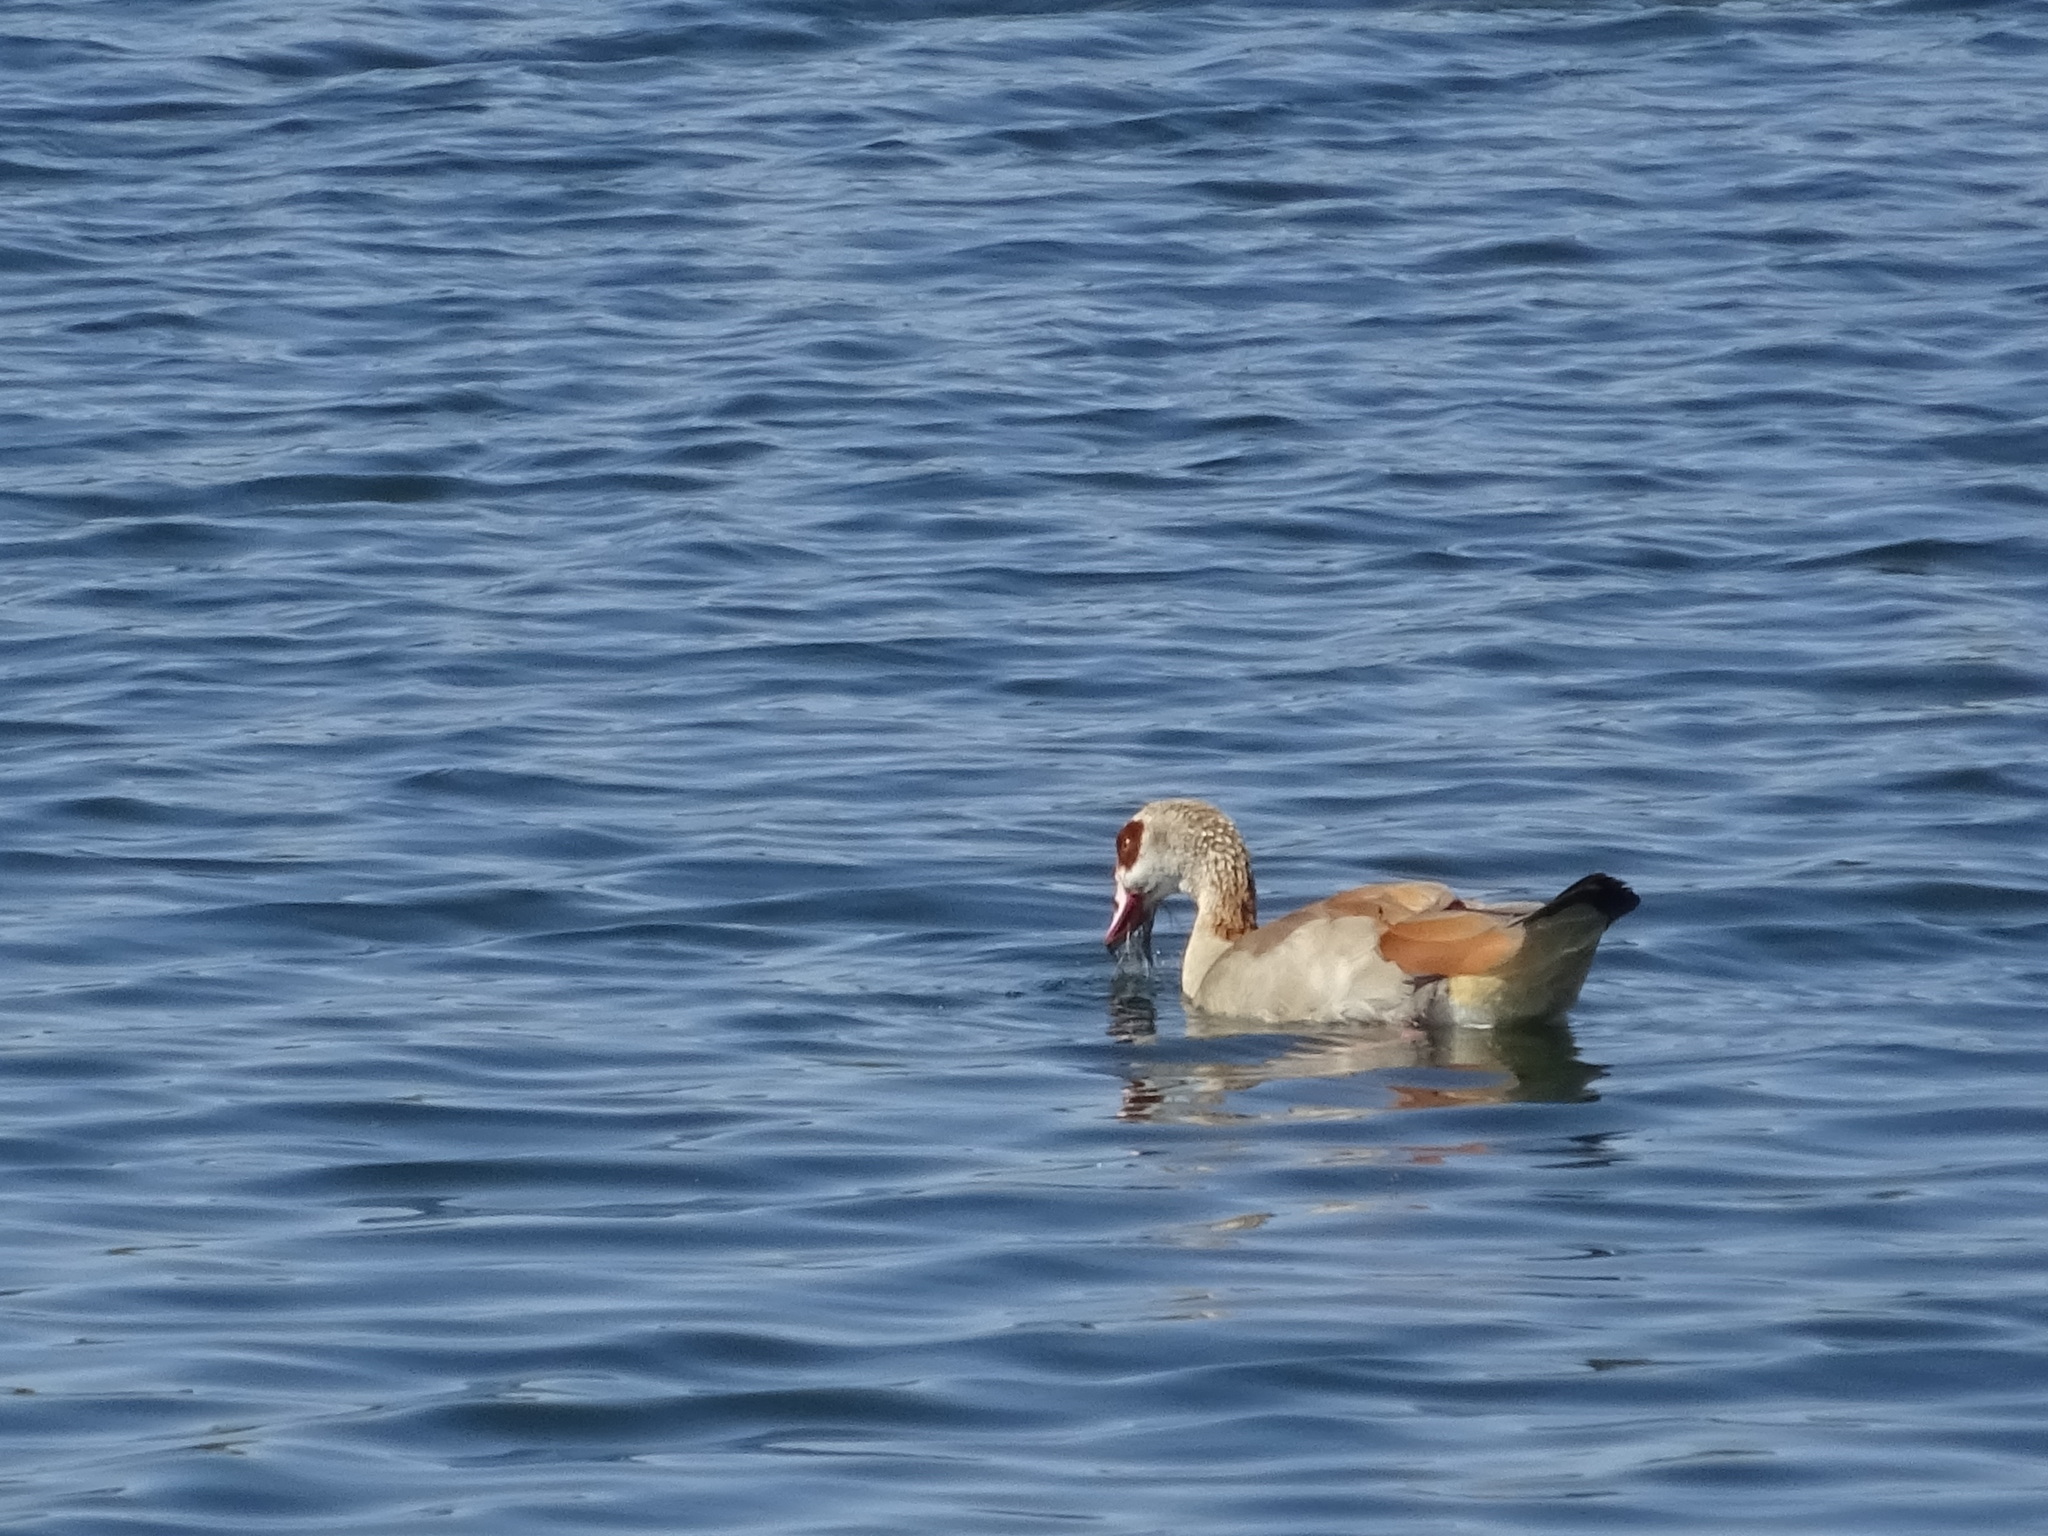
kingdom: Animalia
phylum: Chordata
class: Aves
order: Anseriformes
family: Anatidae
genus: Alopochen
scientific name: Alopochen aegyptiaca
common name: Egyptian goose
